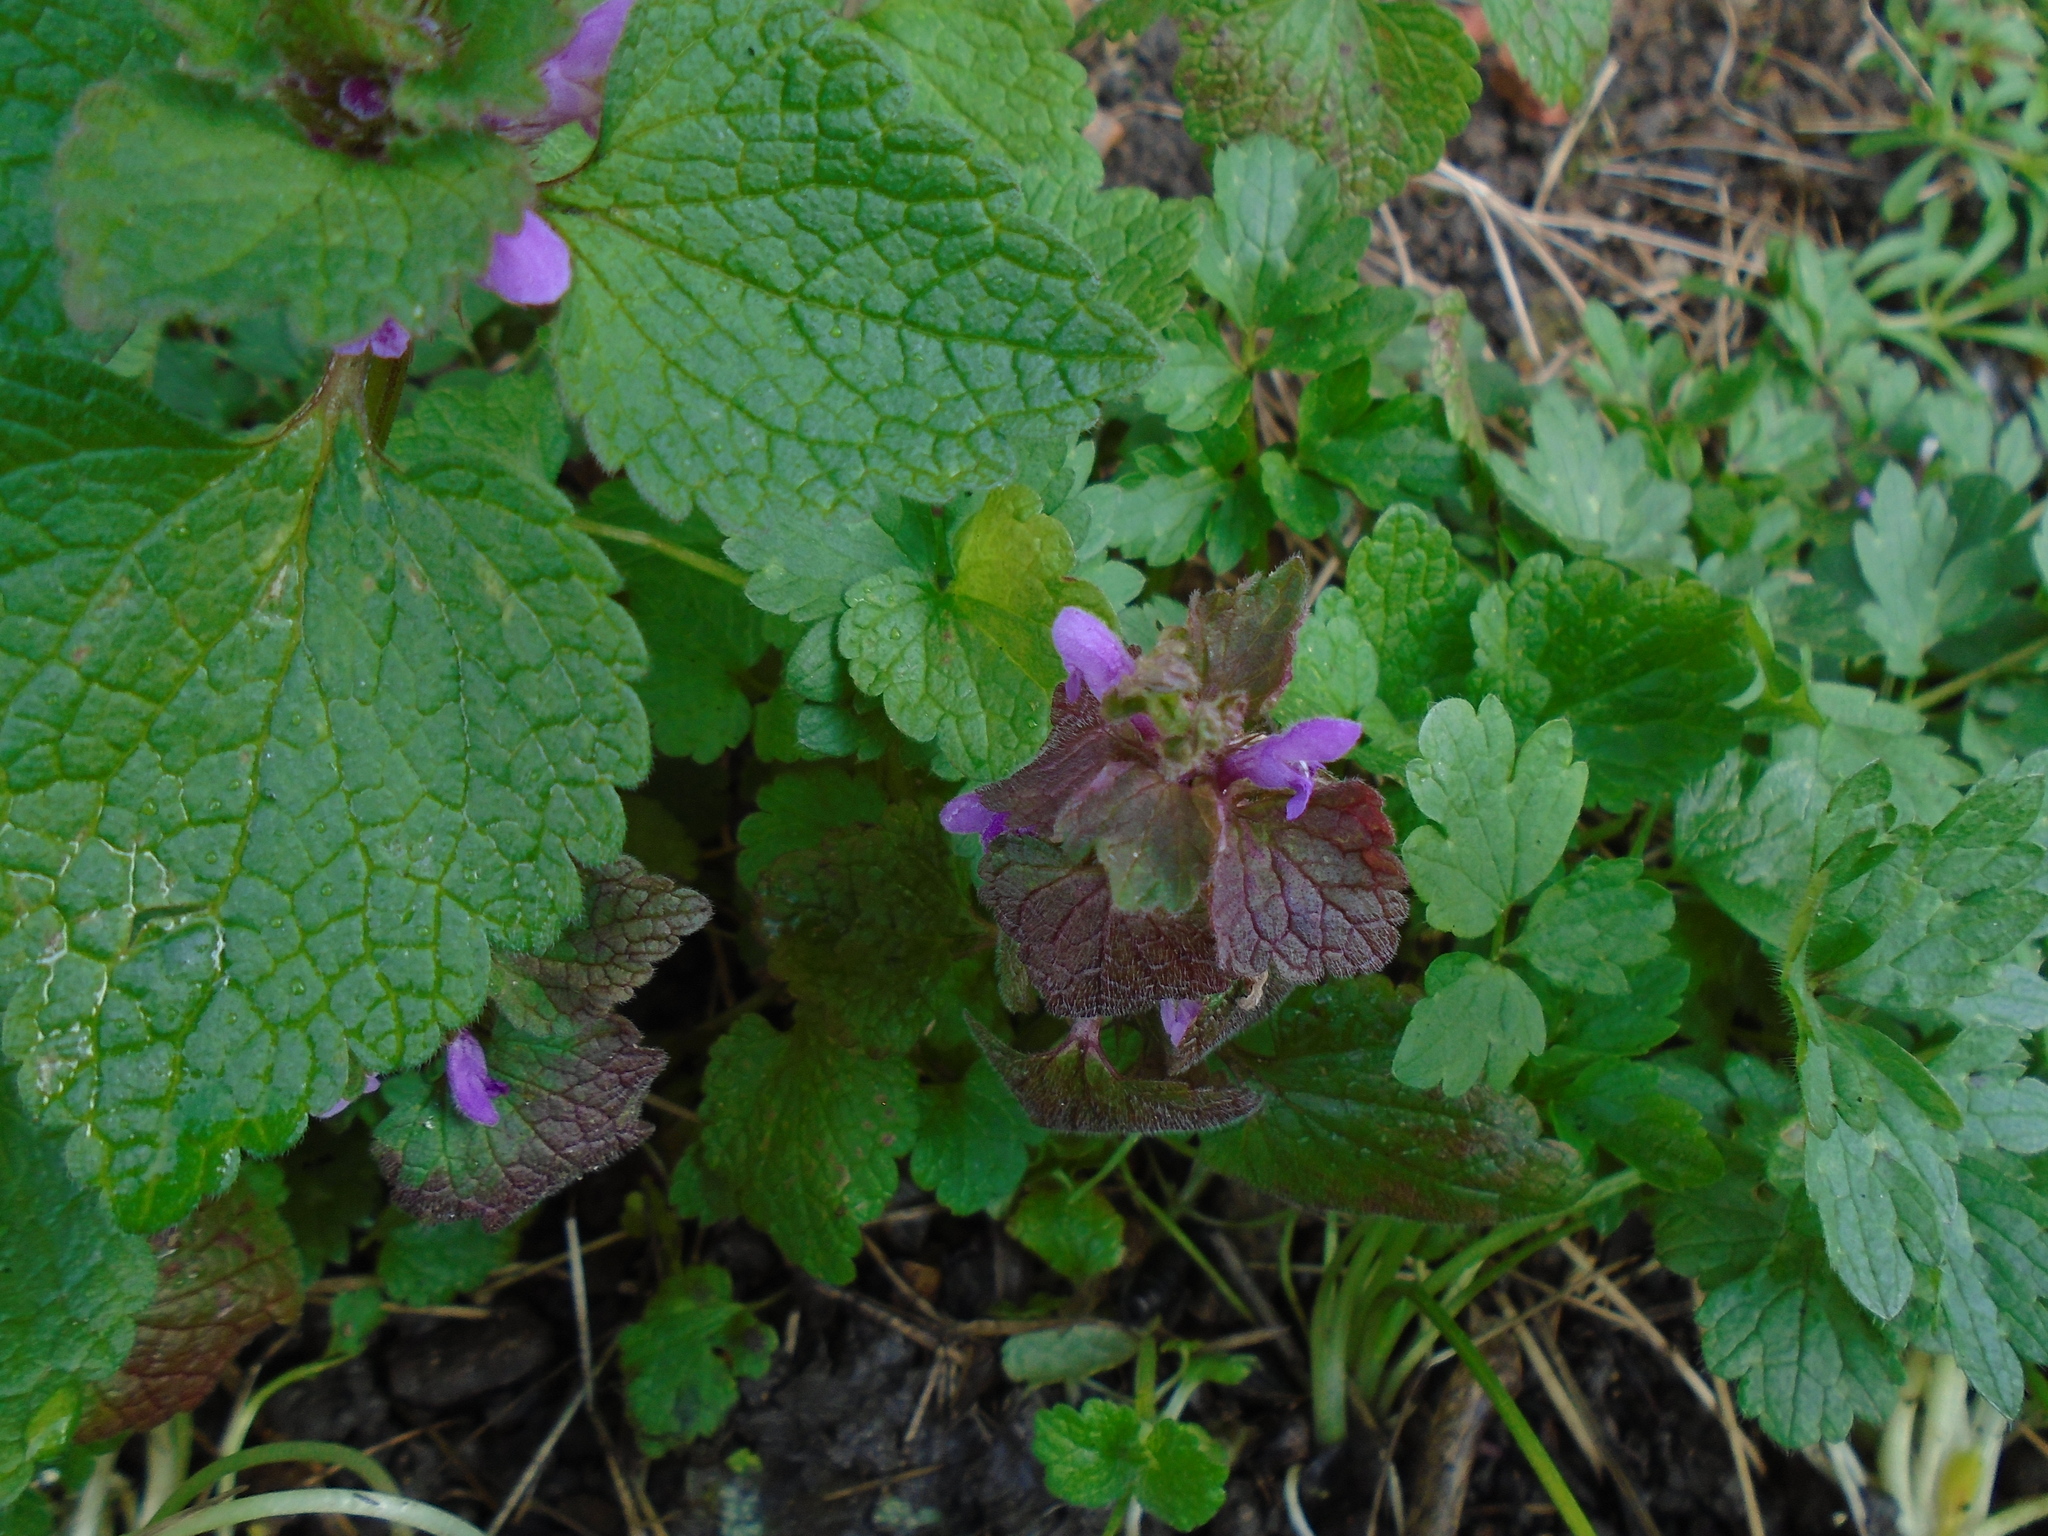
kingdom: Plantae
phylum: Tracheophyta
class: Magnoliopsida
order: Lamiales
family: Lamiaceae
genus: Lamium
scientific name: Lamium purpureum
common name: Red dead-nettle
